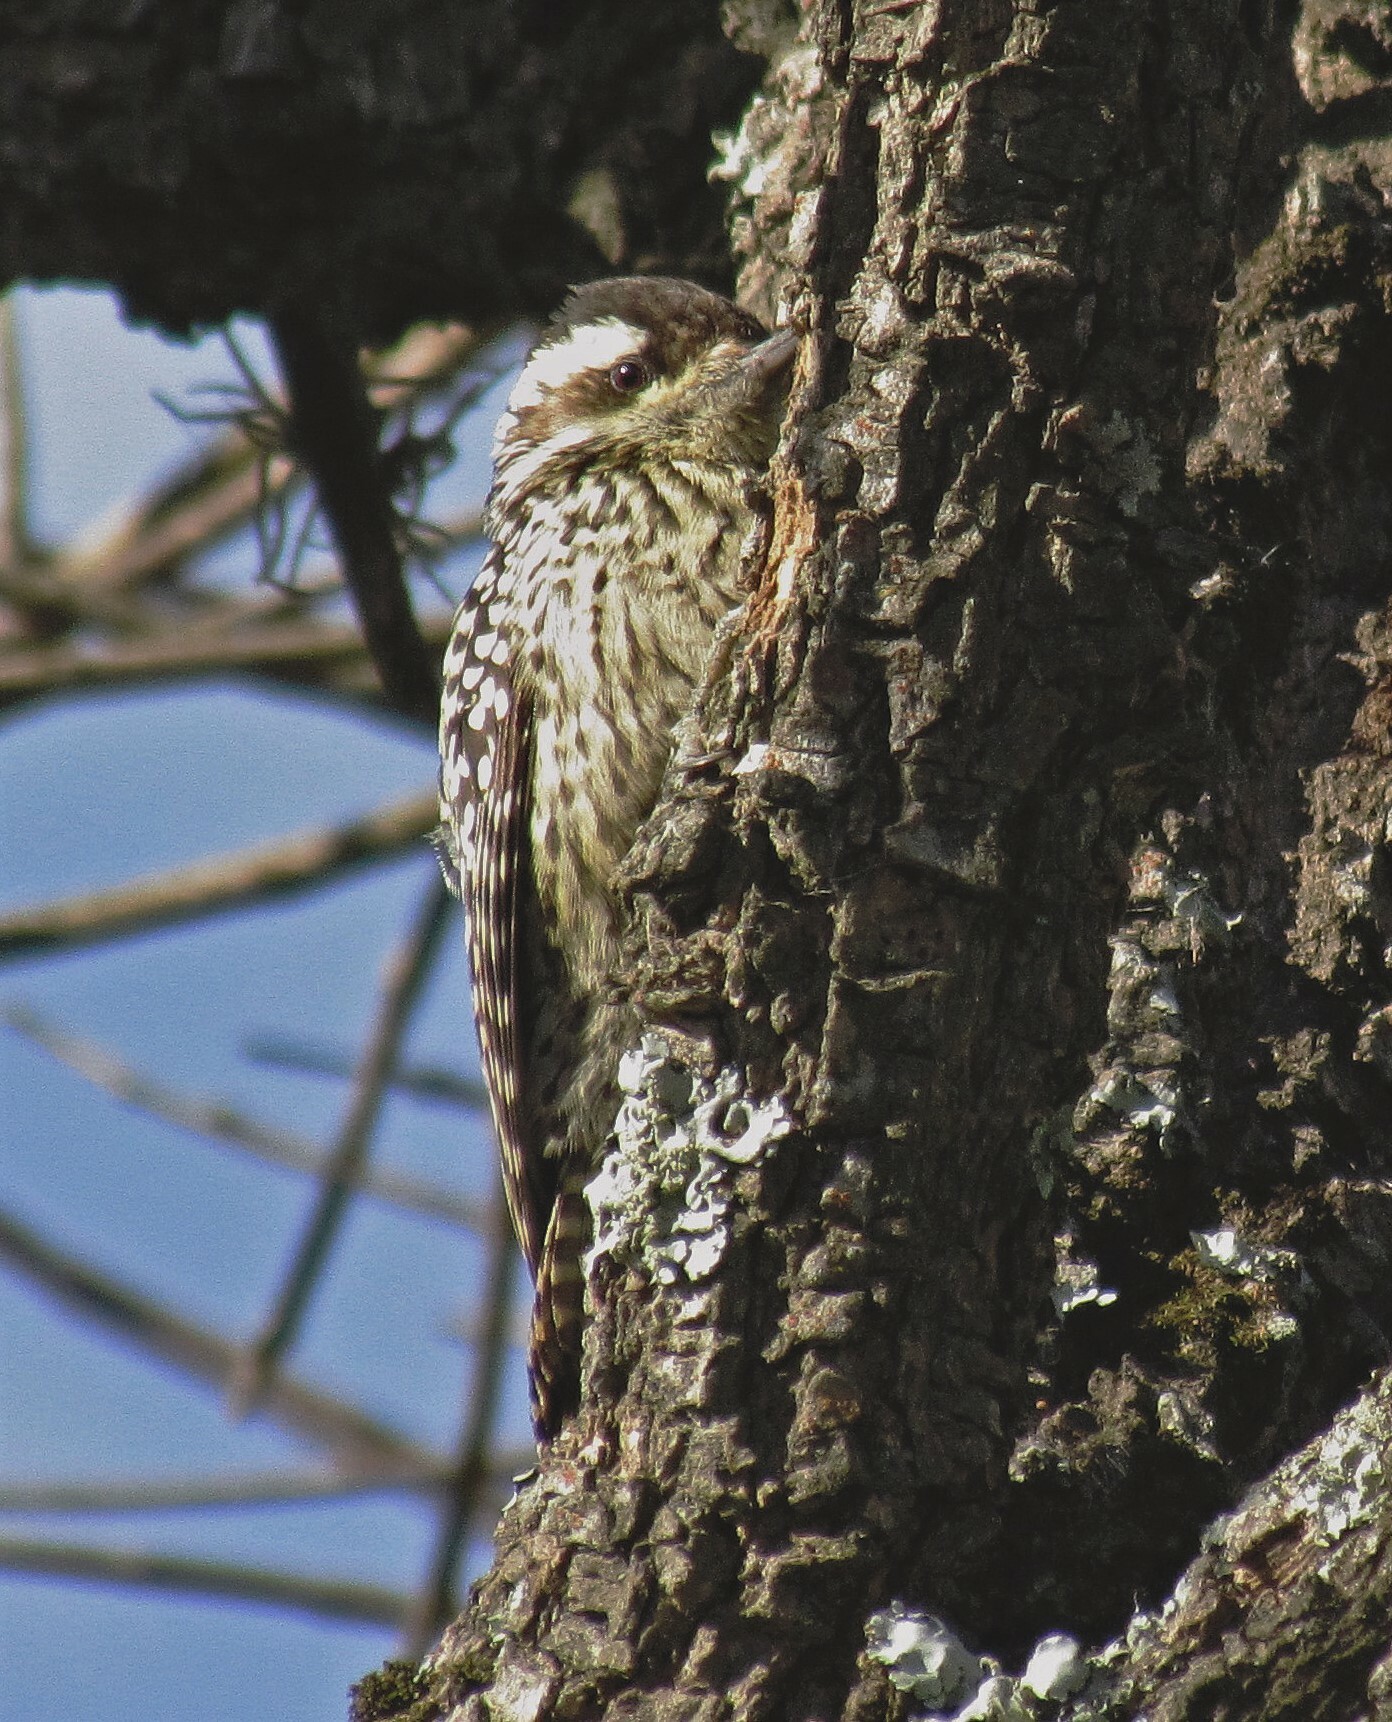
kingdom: Animalia
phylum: Chordata
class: Aves
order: Piciformes
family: Picidae
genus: Veniliornis
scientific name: Veniliornis mixtus
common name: Checkered woodpecker
